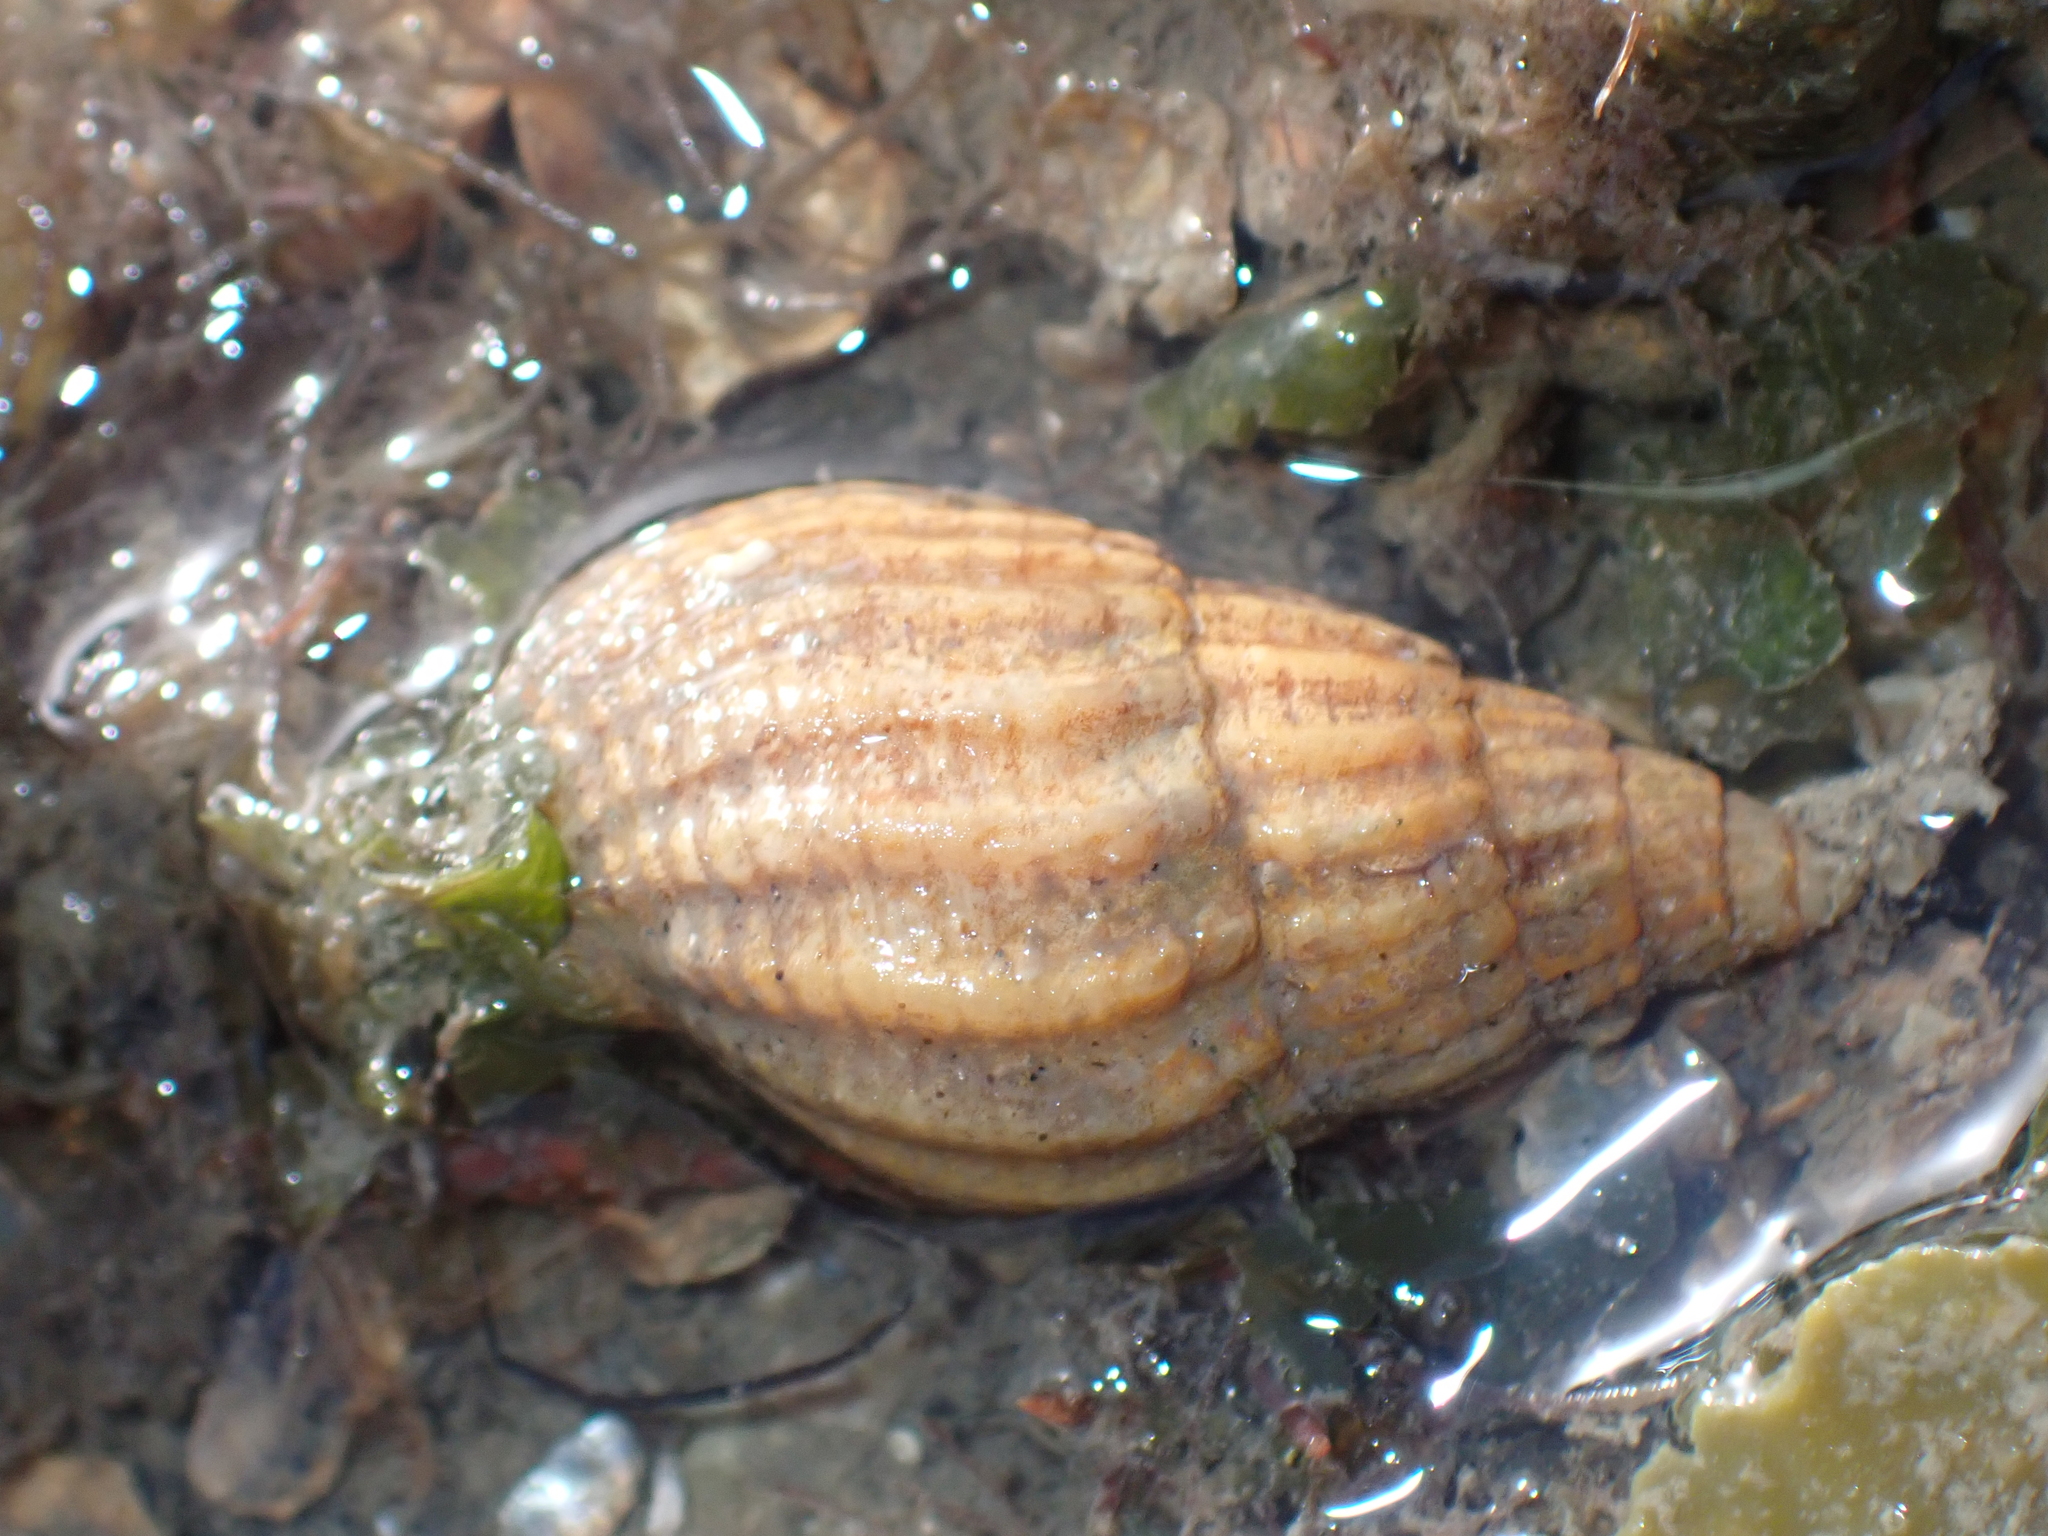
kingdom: Animalia
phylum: Mollusca
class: Gastropoda
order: Neogastropoda
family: Nassariidae
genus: Tritia
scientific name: Tritia reticulata
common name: Netted dog whelk
